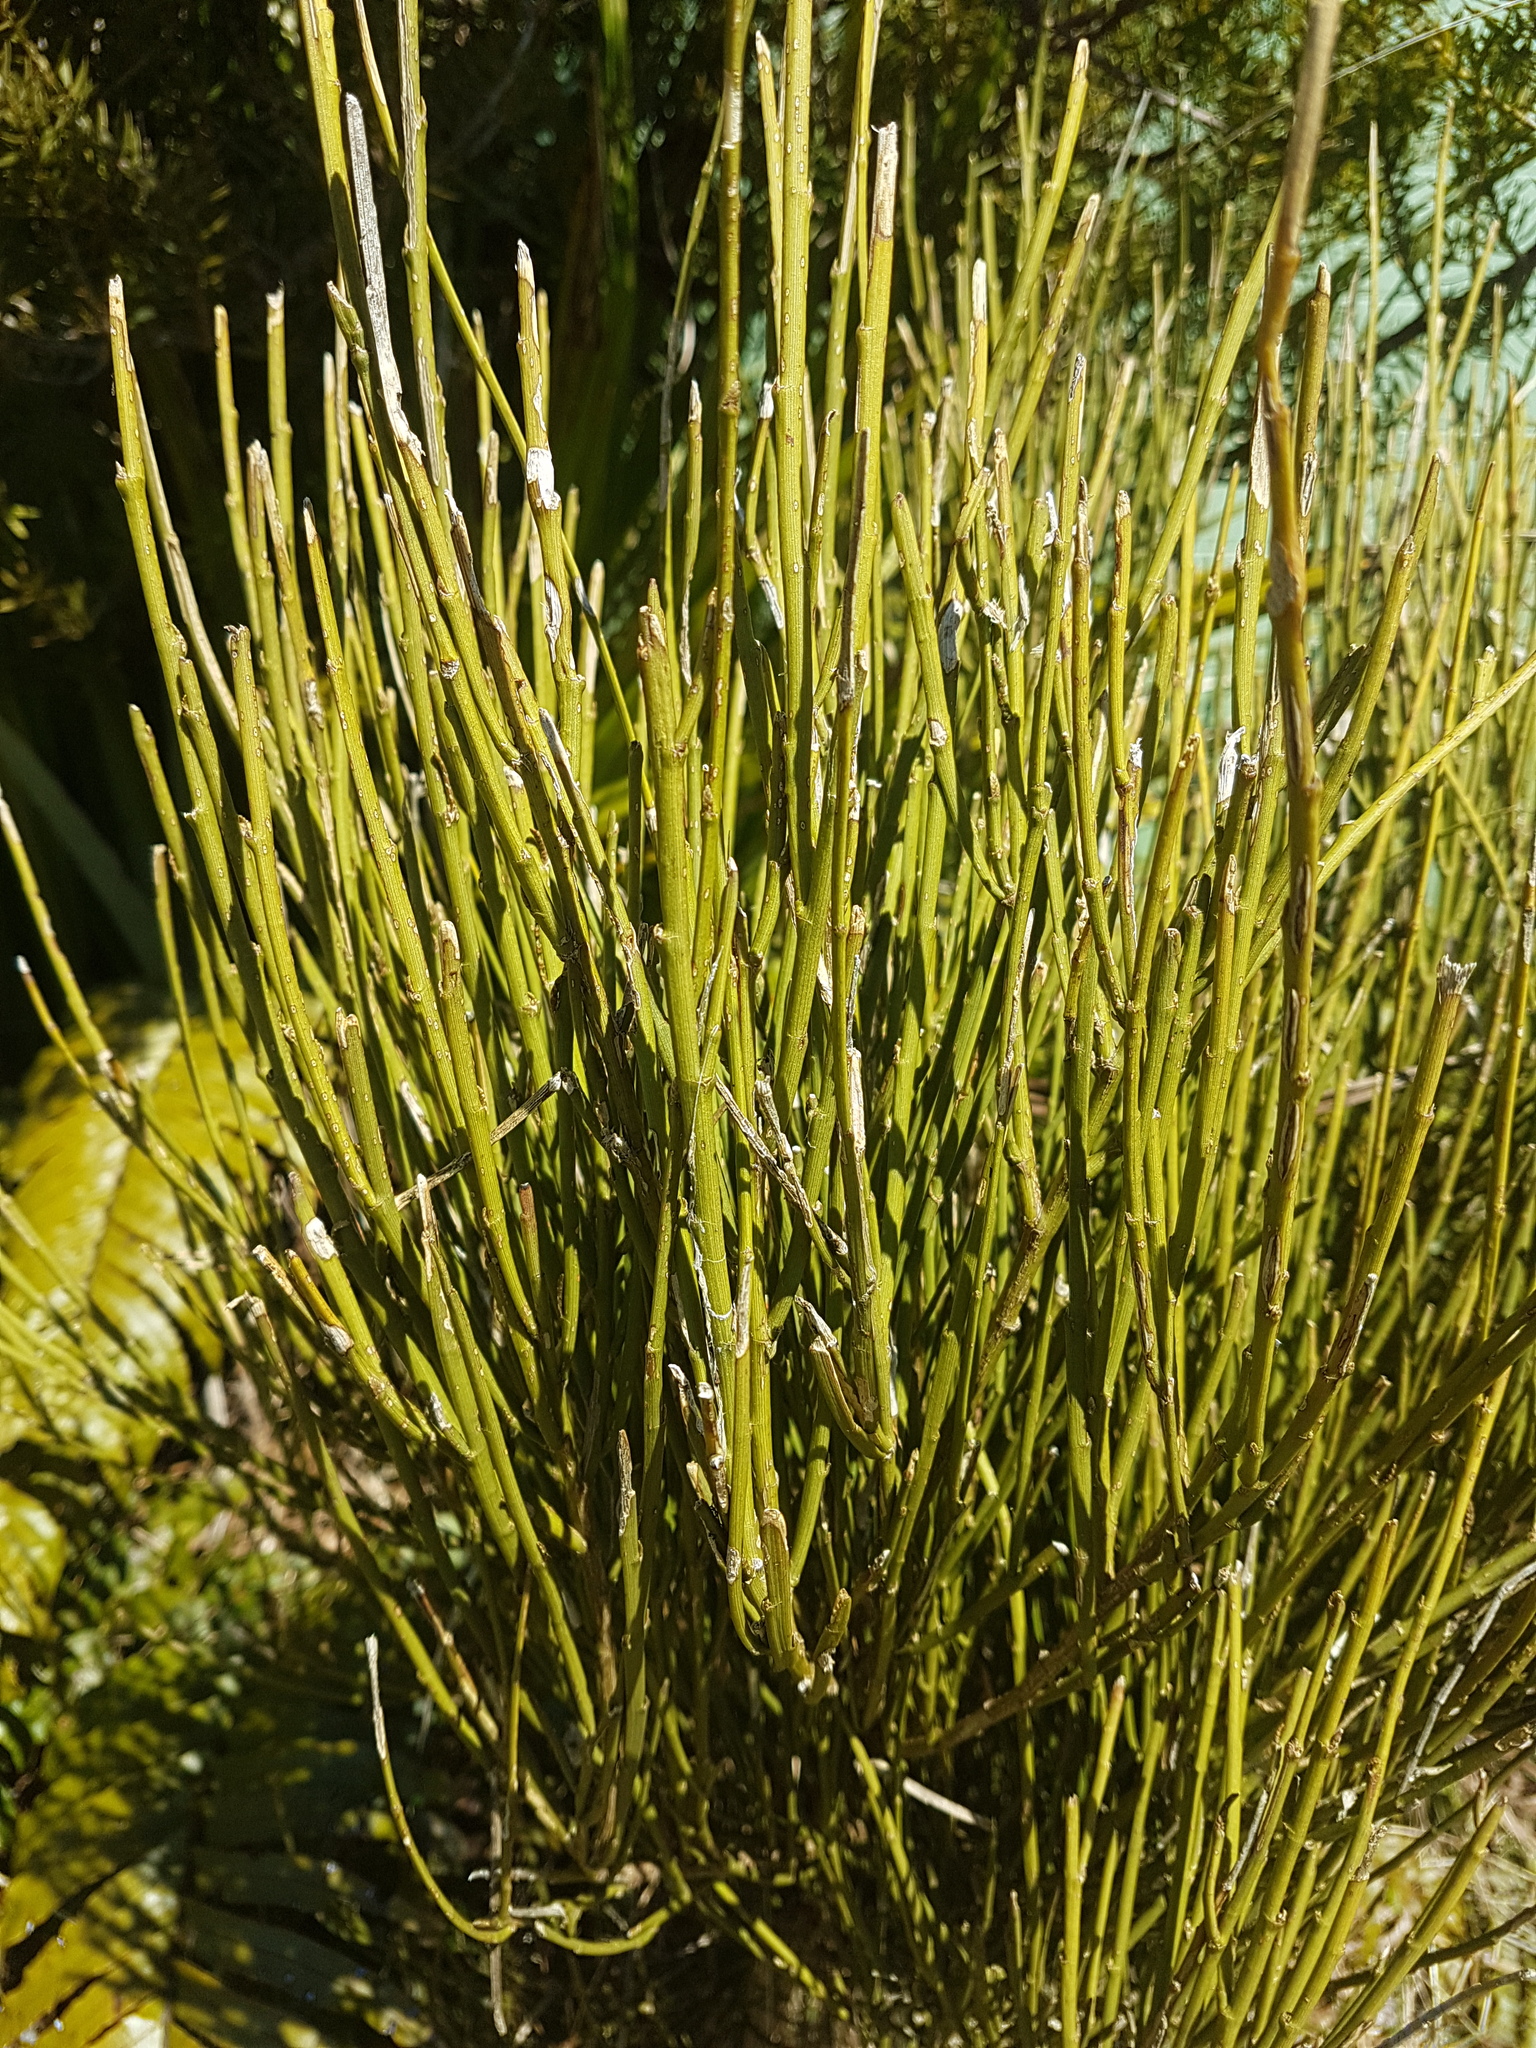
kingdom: Plantae
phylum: Tracheophyta
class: Magnoliopsida
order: Fabales
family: Fabaceae
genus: Carmichaelia
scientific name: Carmichaelia australis
